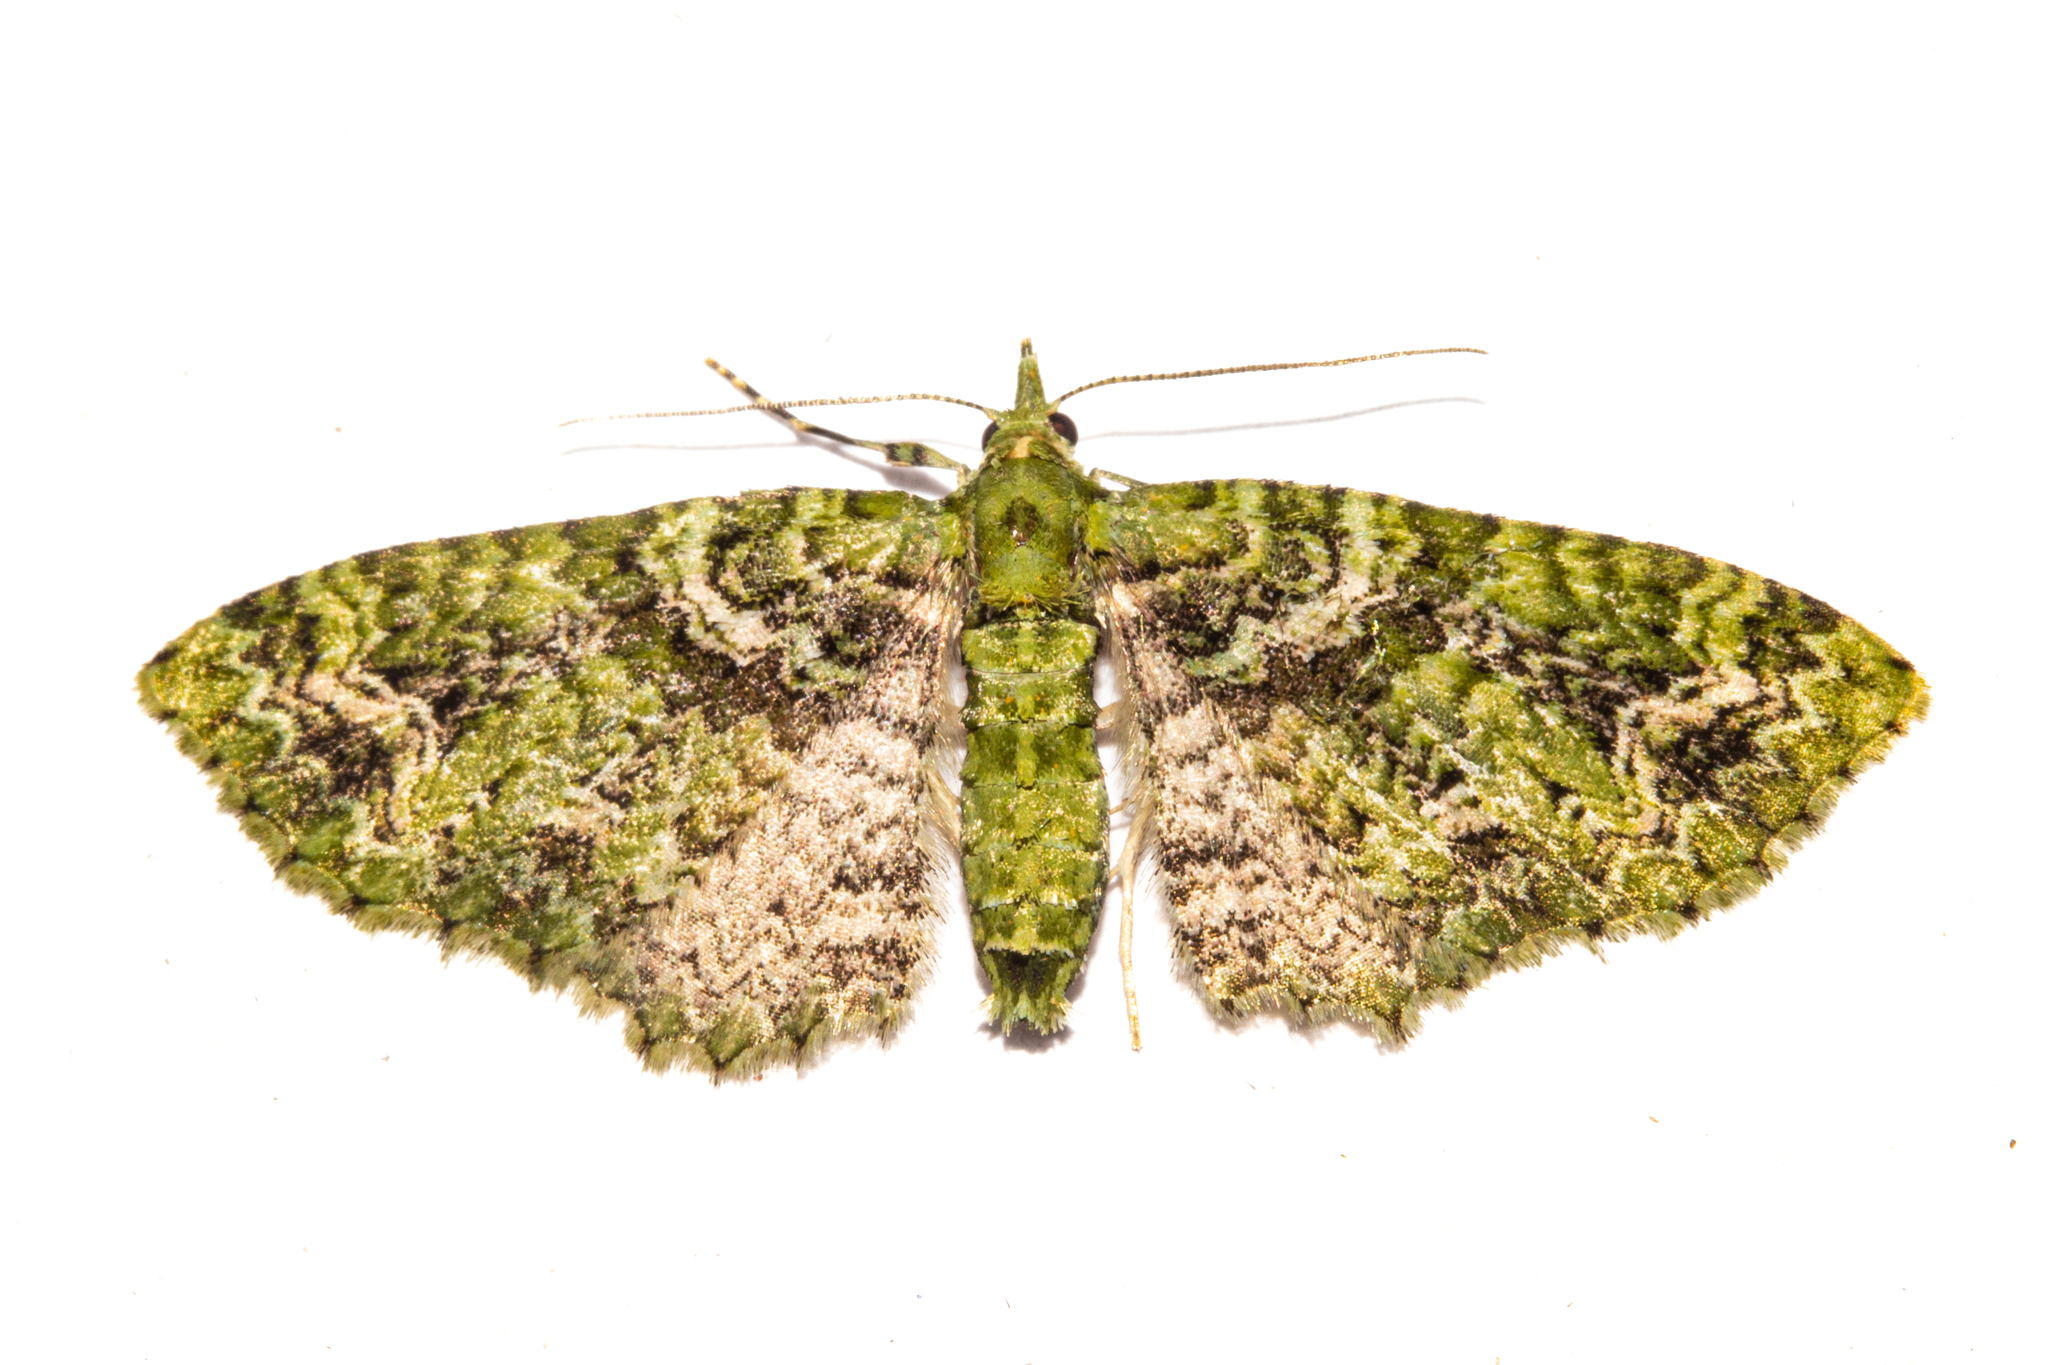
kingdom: Animalia
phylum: Arthropoda
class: Insecta
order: Lepidoptera
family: Geometridae
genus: Pasiphila
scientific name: Pasiphila muscosata
